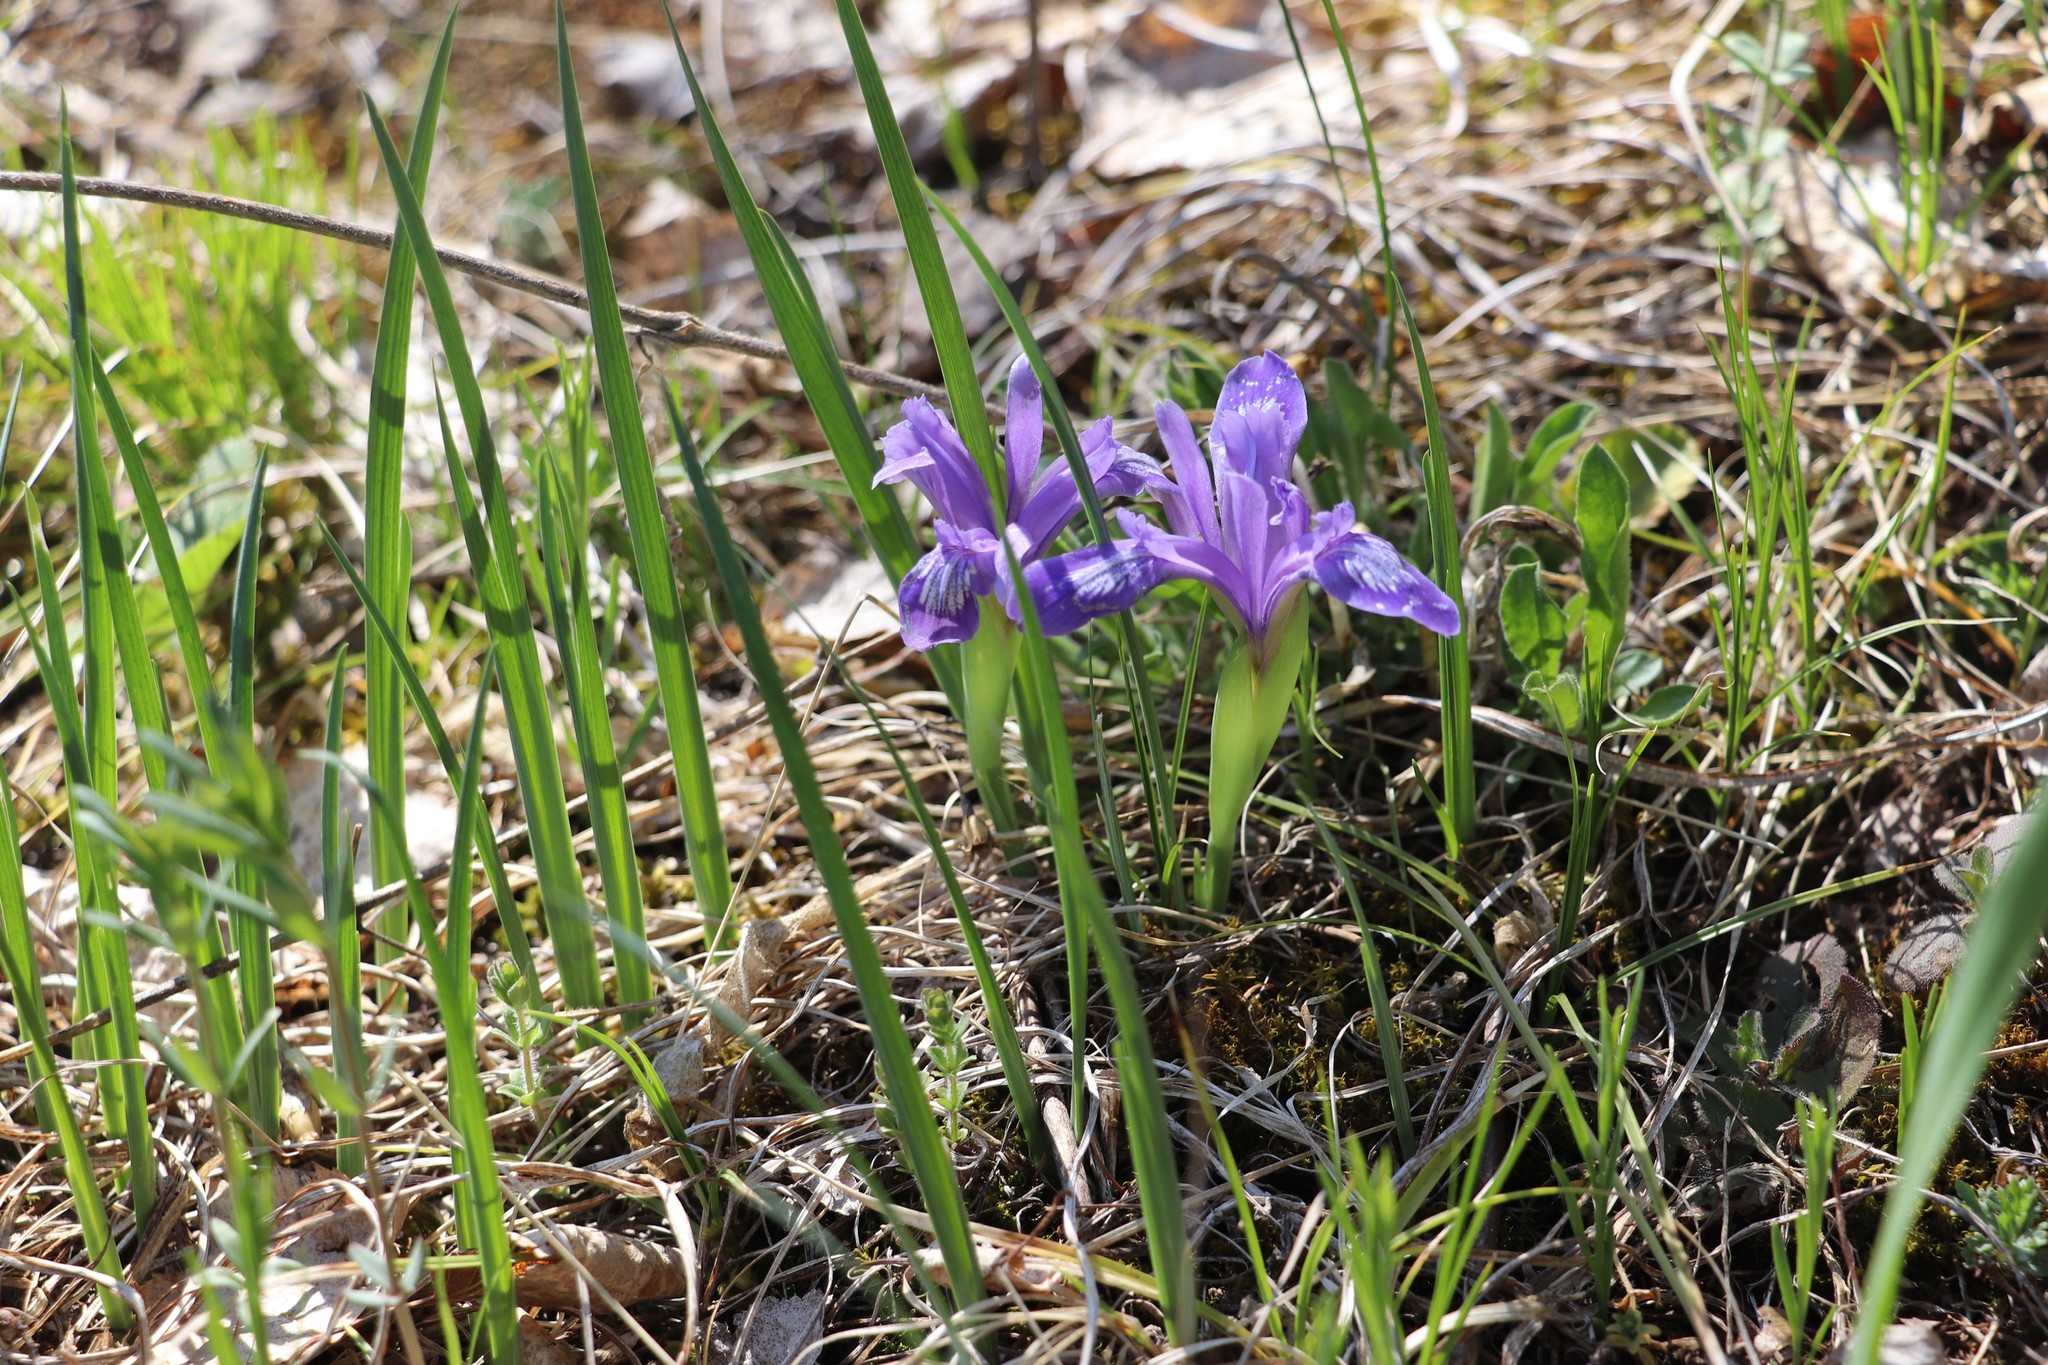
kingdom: Plantae
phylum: Tracheophyta
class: Liliopsida
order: Asparagales
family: Iridaceae
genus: Iris
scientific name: Iris ruthenica
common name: Purple-bract iris
